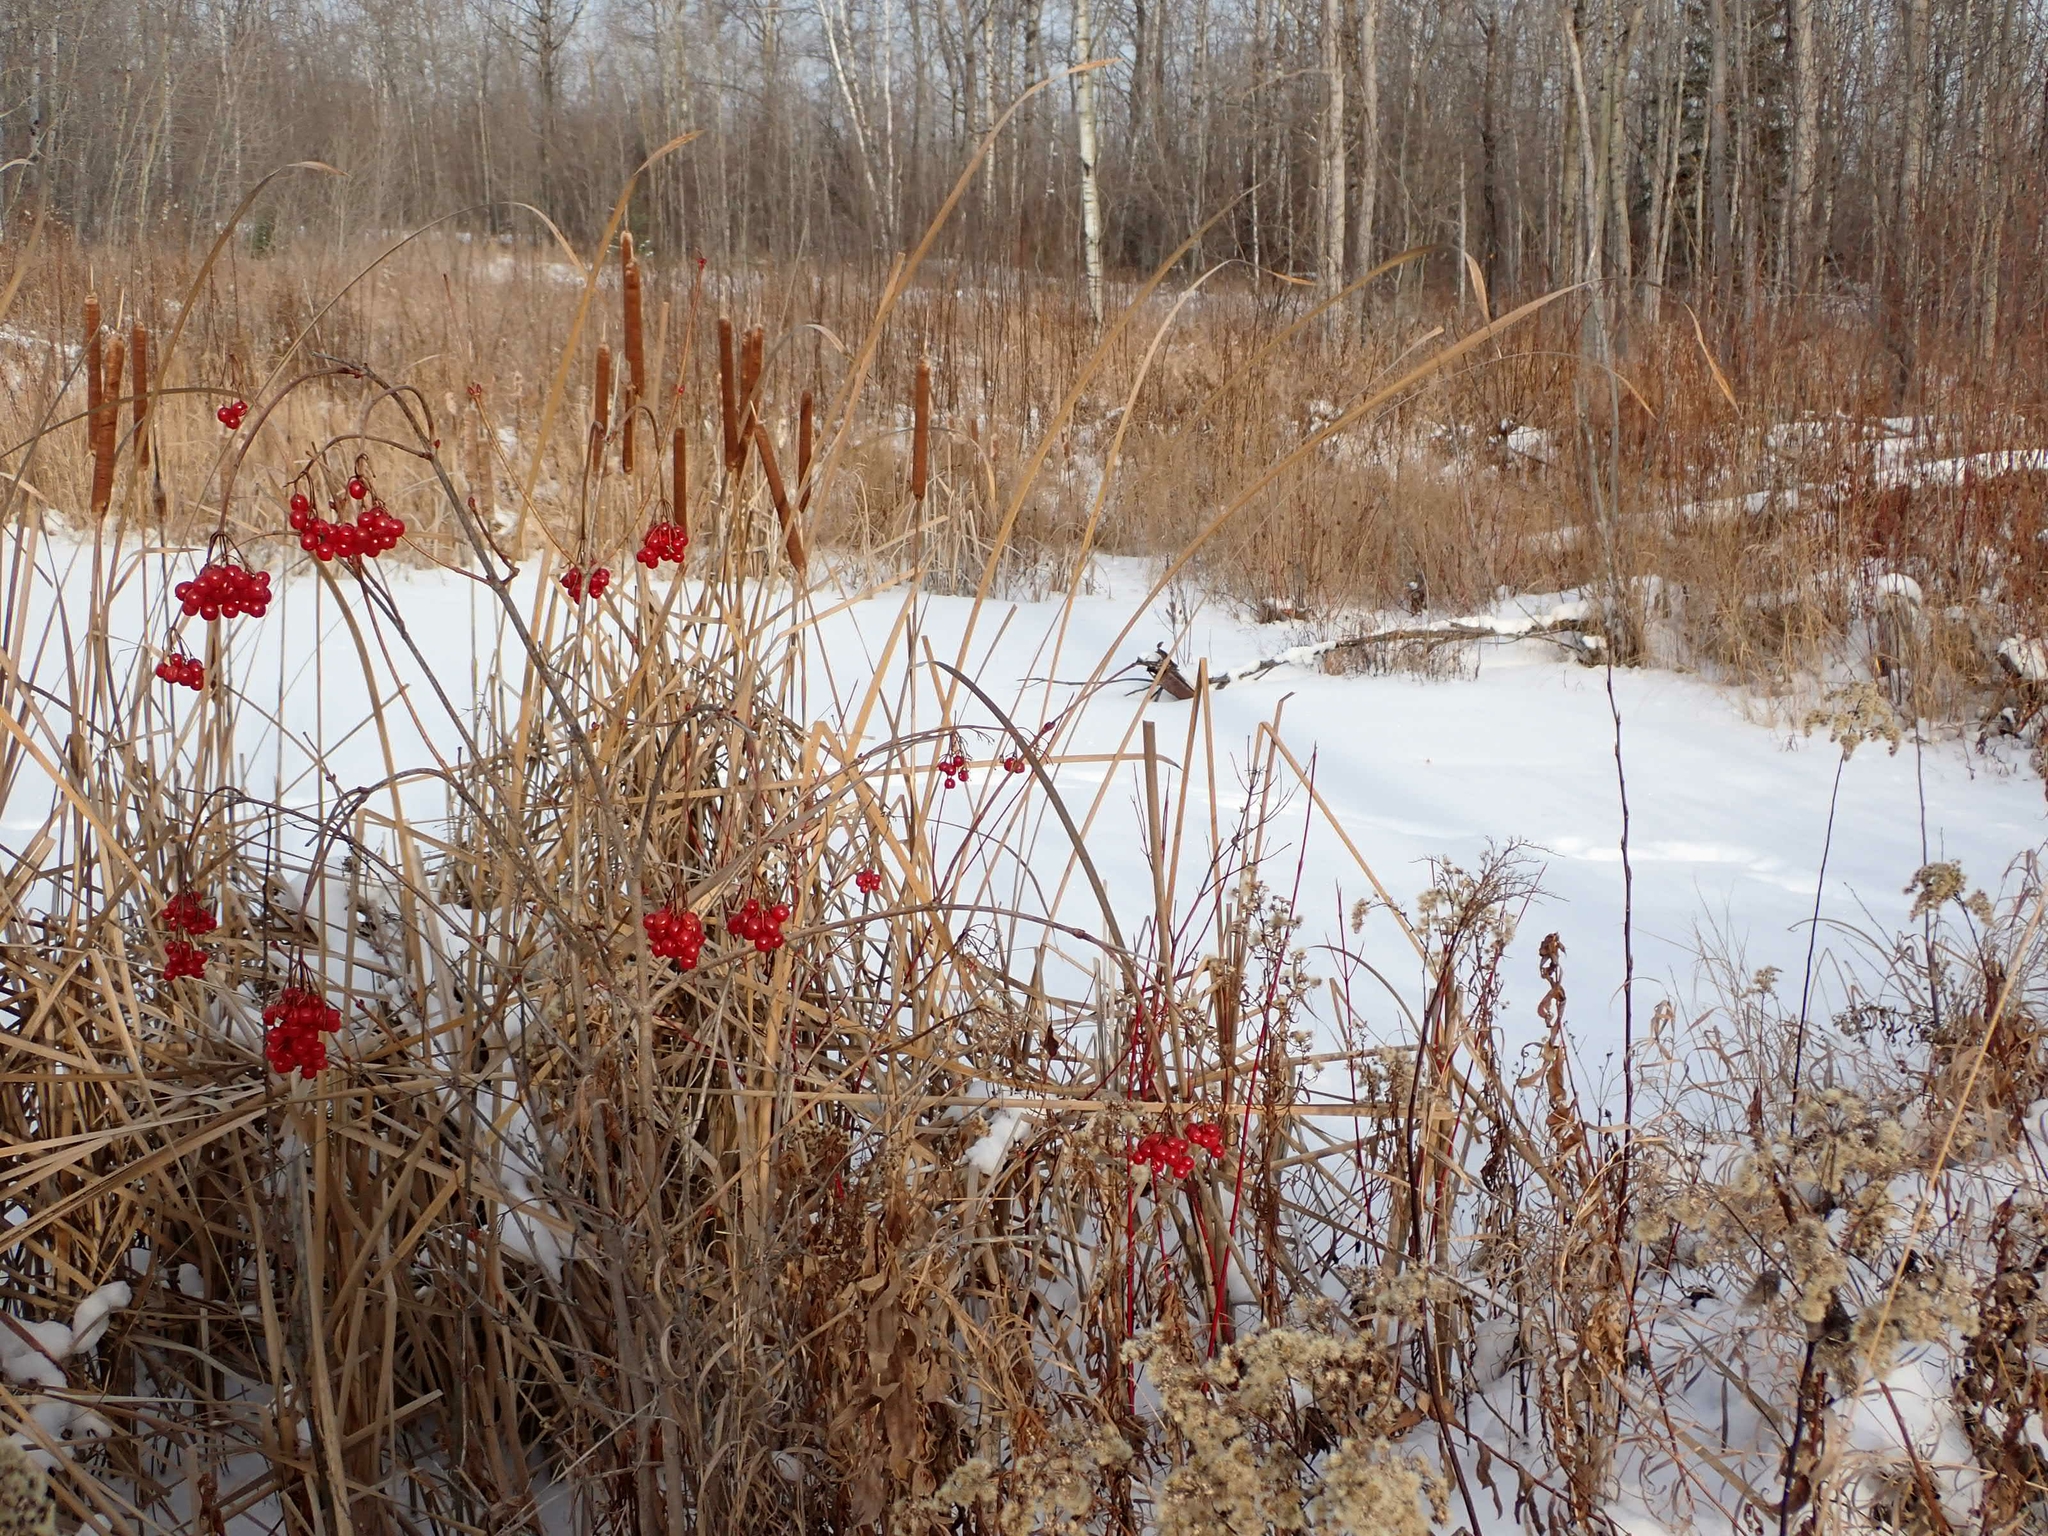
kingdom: Plantae
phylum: Tracheophyta
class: Magnoliopsida
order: Dipsacales
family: Viburnaceae
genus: Viburnum
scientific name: Viburnum trilobum
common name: American cranberrybush
